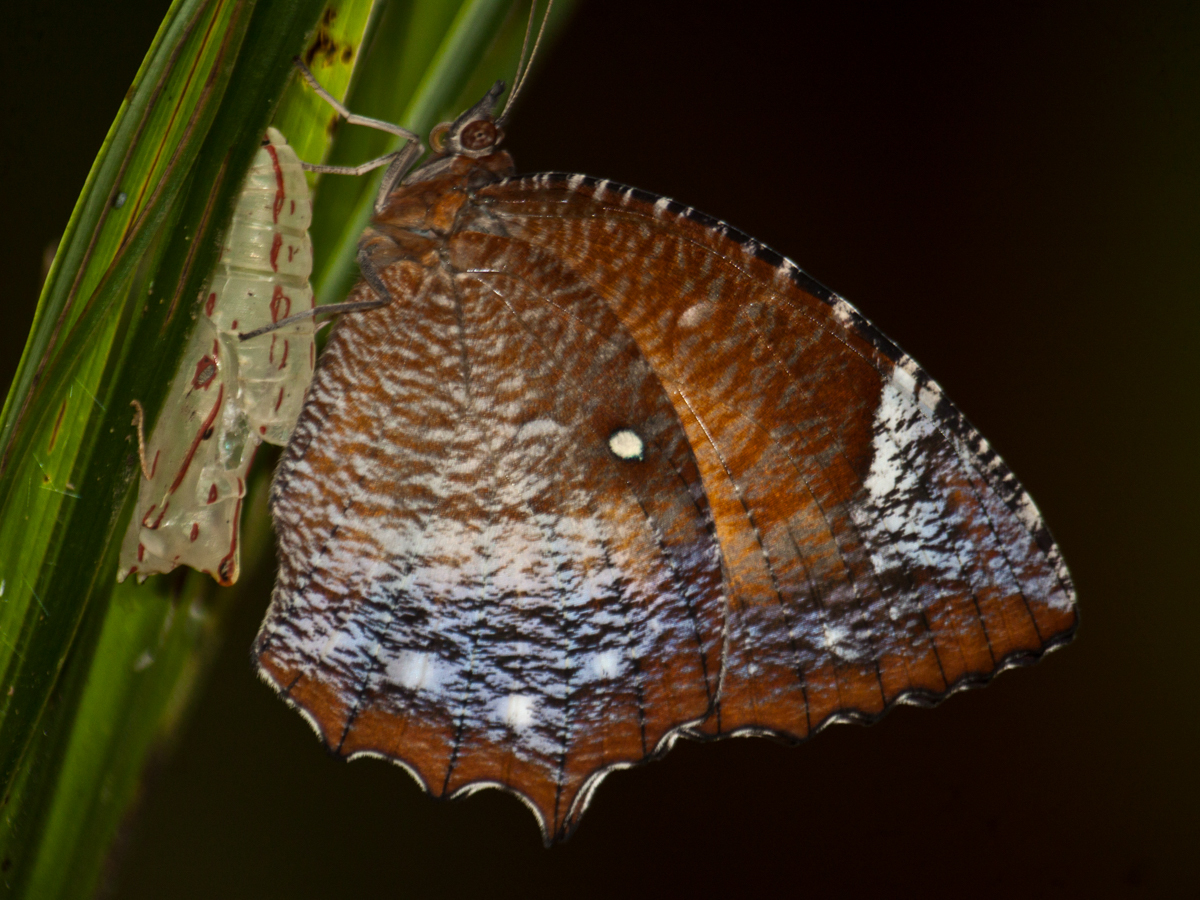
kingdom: Animalia
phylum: Arthropoda
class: Insecta
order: Lepidoptera
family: Nymphalidae
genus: Elymnias
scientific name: Elymnias hypermnestra
